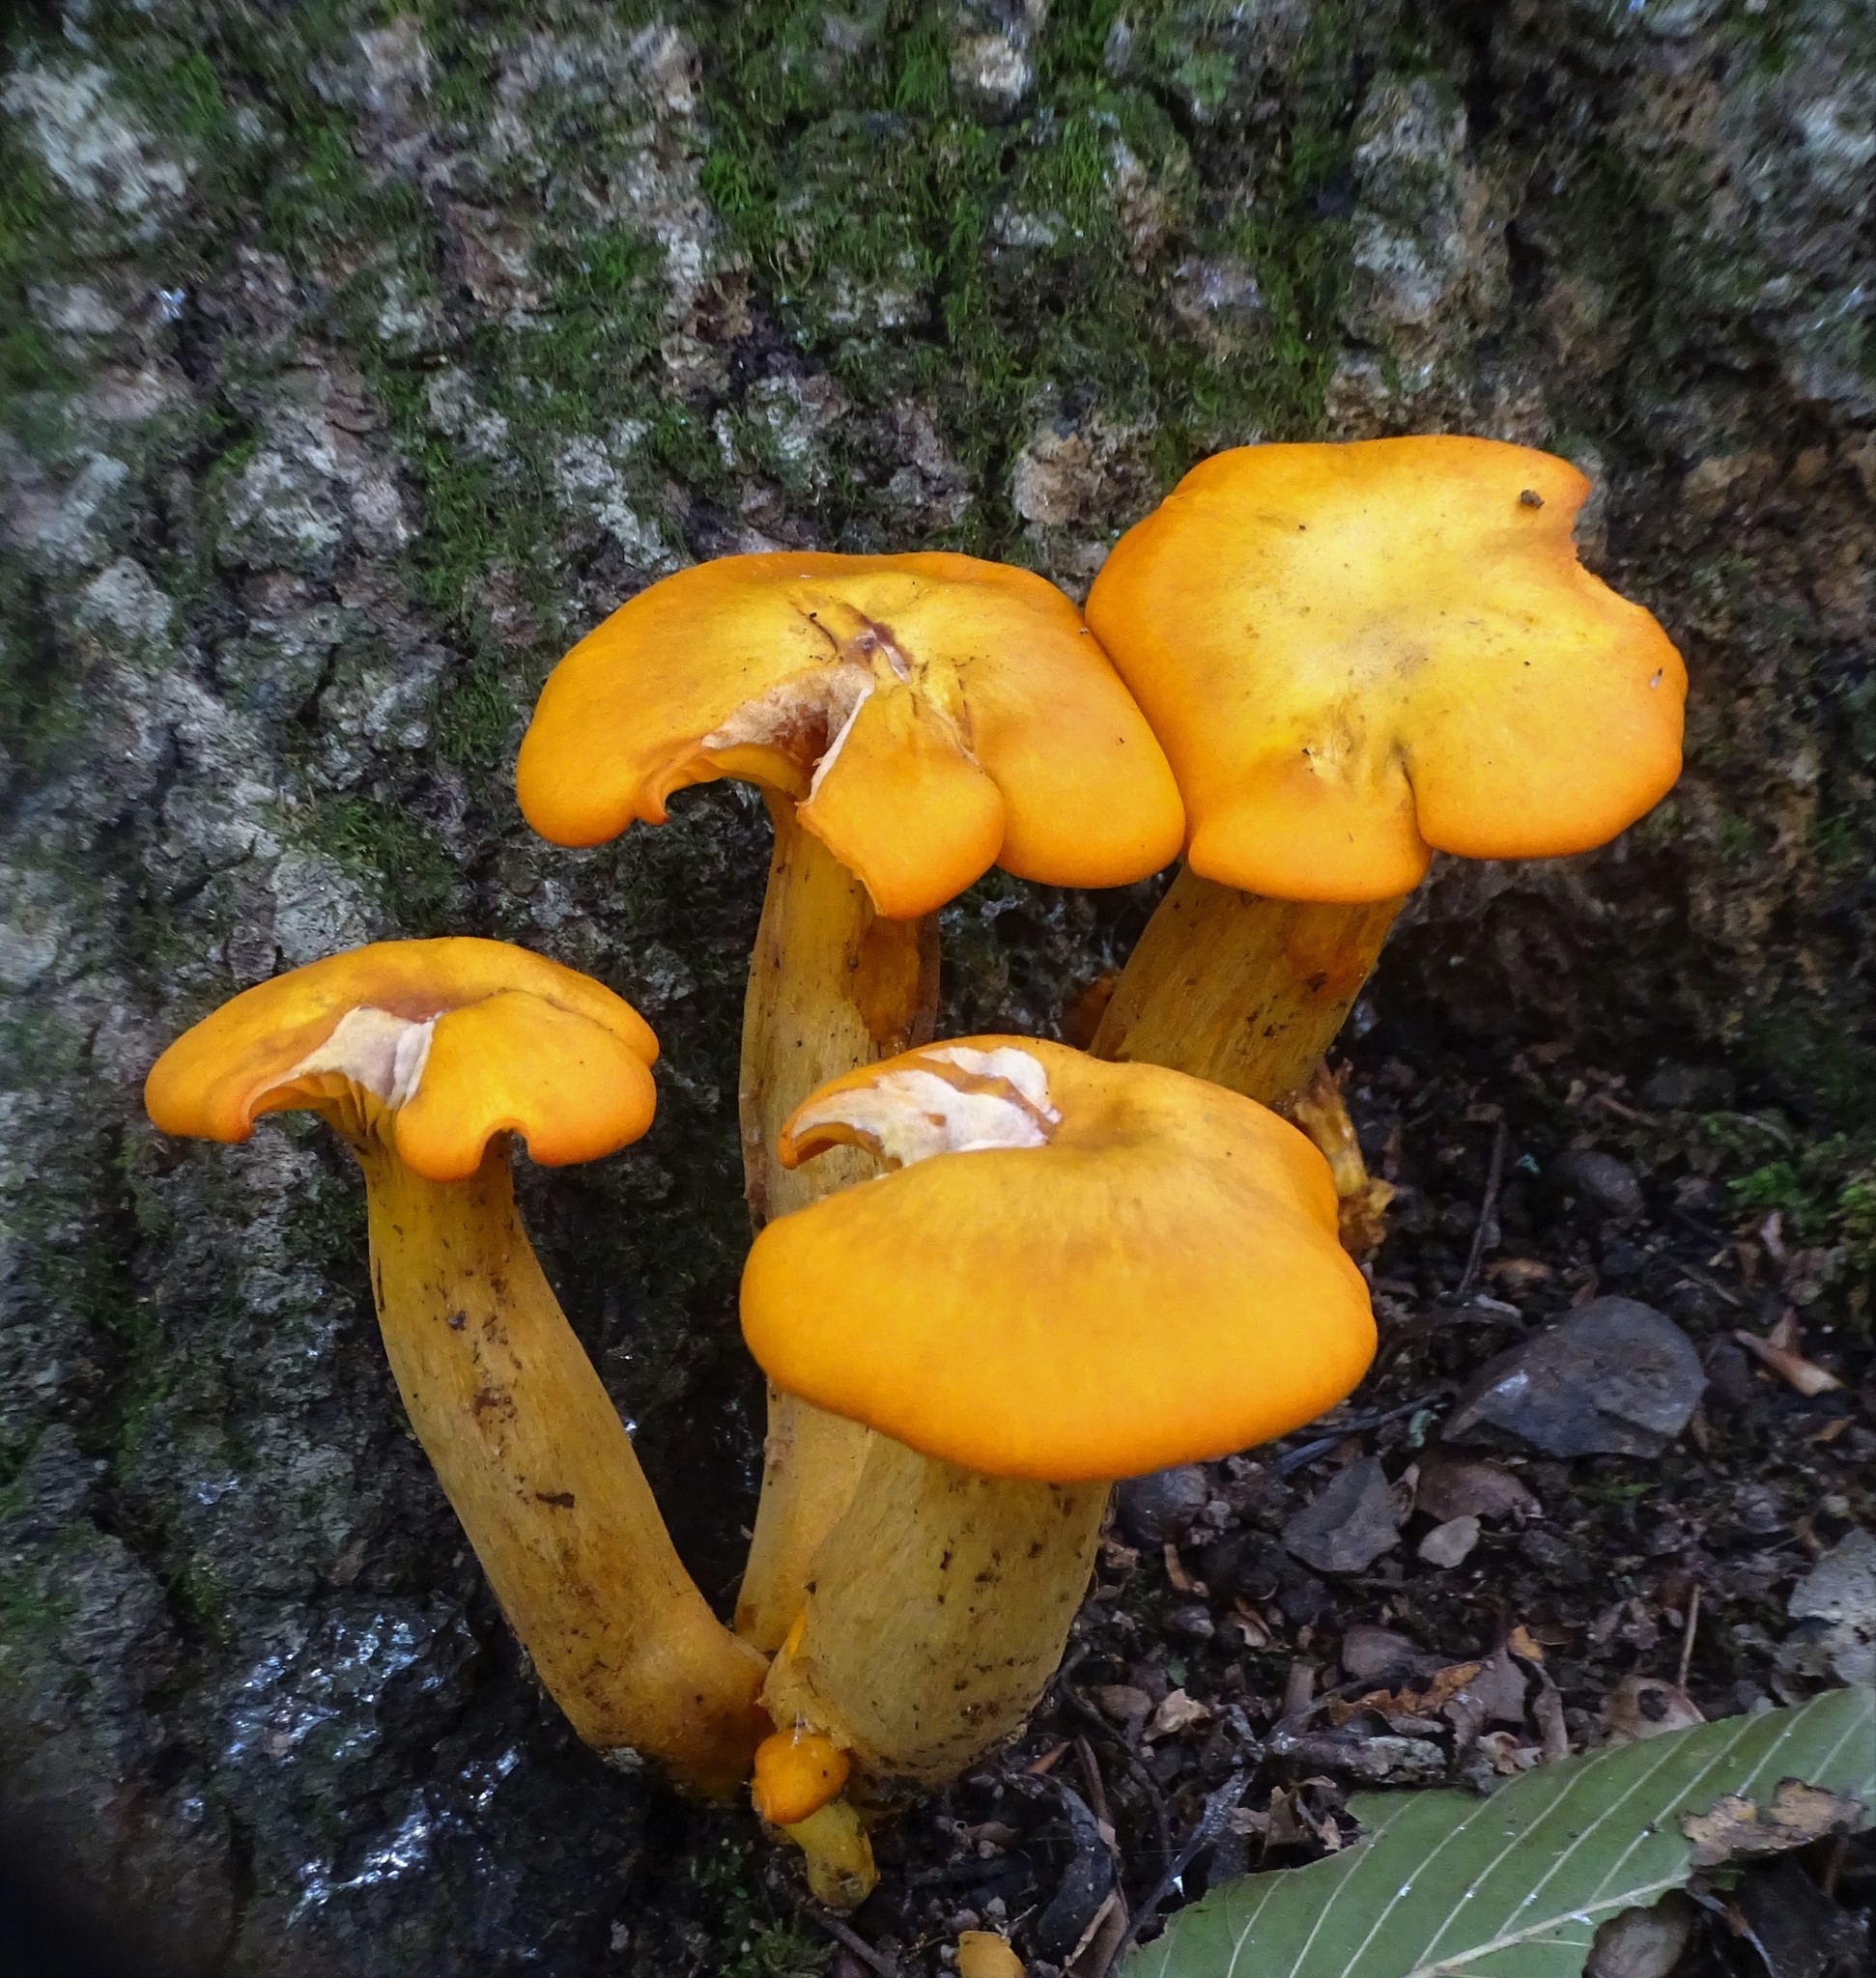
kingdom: Fungi
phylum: Basidiomycota
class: Agaricomycetes
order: Agaricales
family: Omphalotaceae
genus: Omphalotus
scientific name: Omphalotus illudens
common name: Jack o lantern
